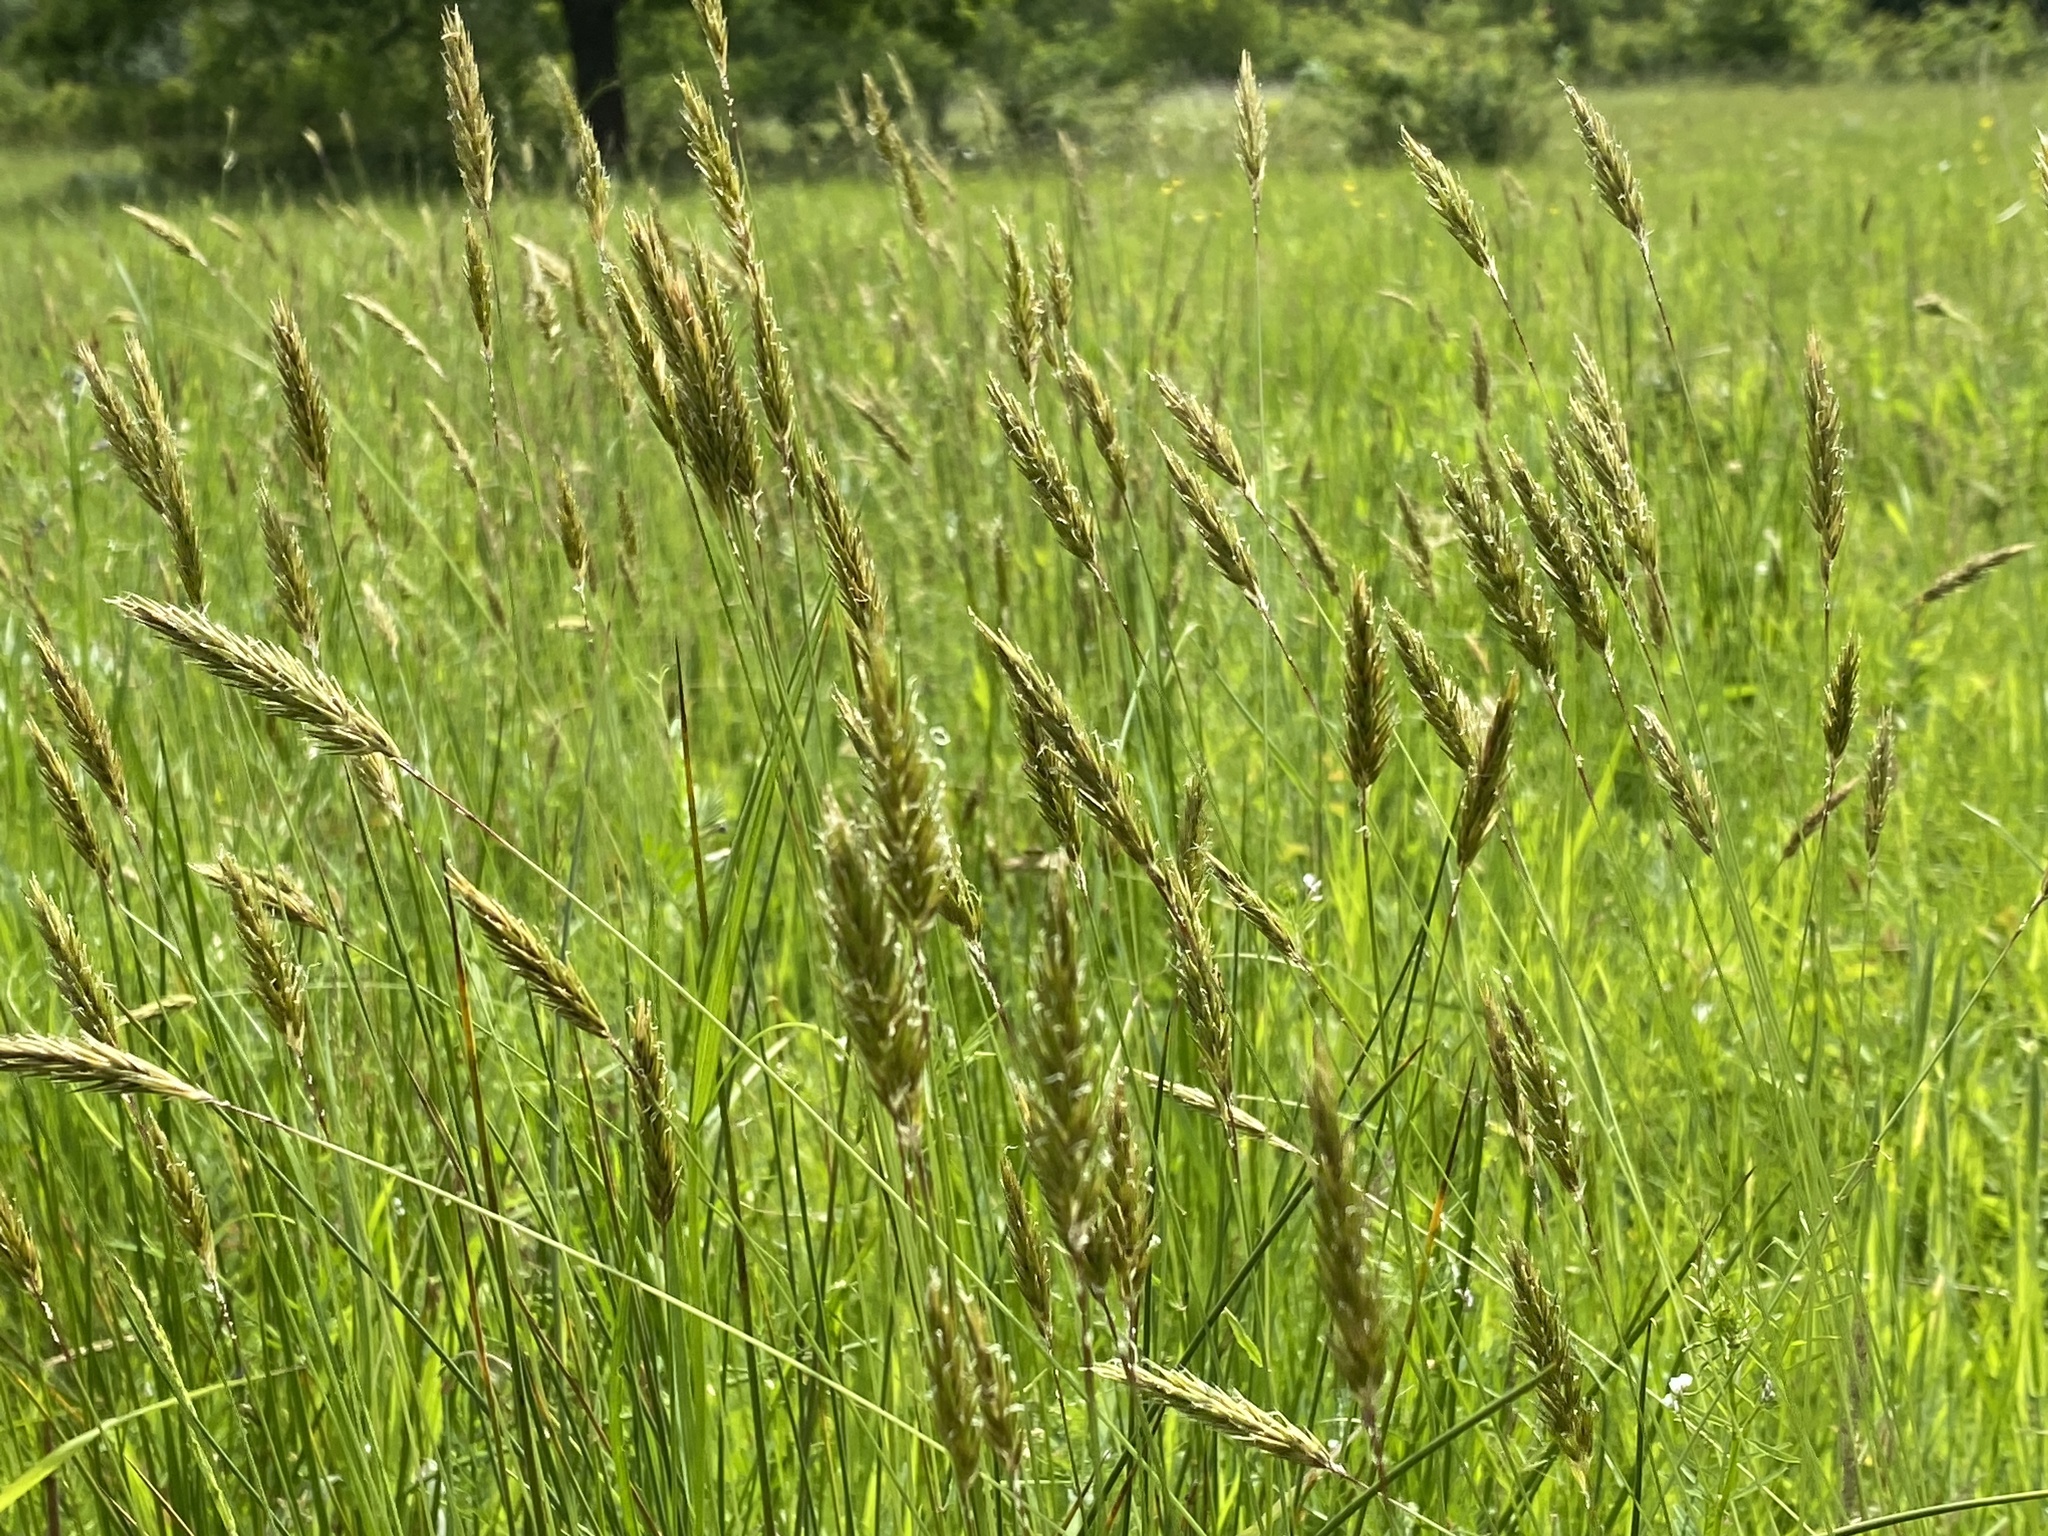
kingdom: Plantae
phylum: Tracheophyta
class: Liliopsida
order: Poales
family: Poaceae
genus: Anthoxanthum
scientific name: Anthoxanthum odoratum
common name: Sweet vernalgrass
